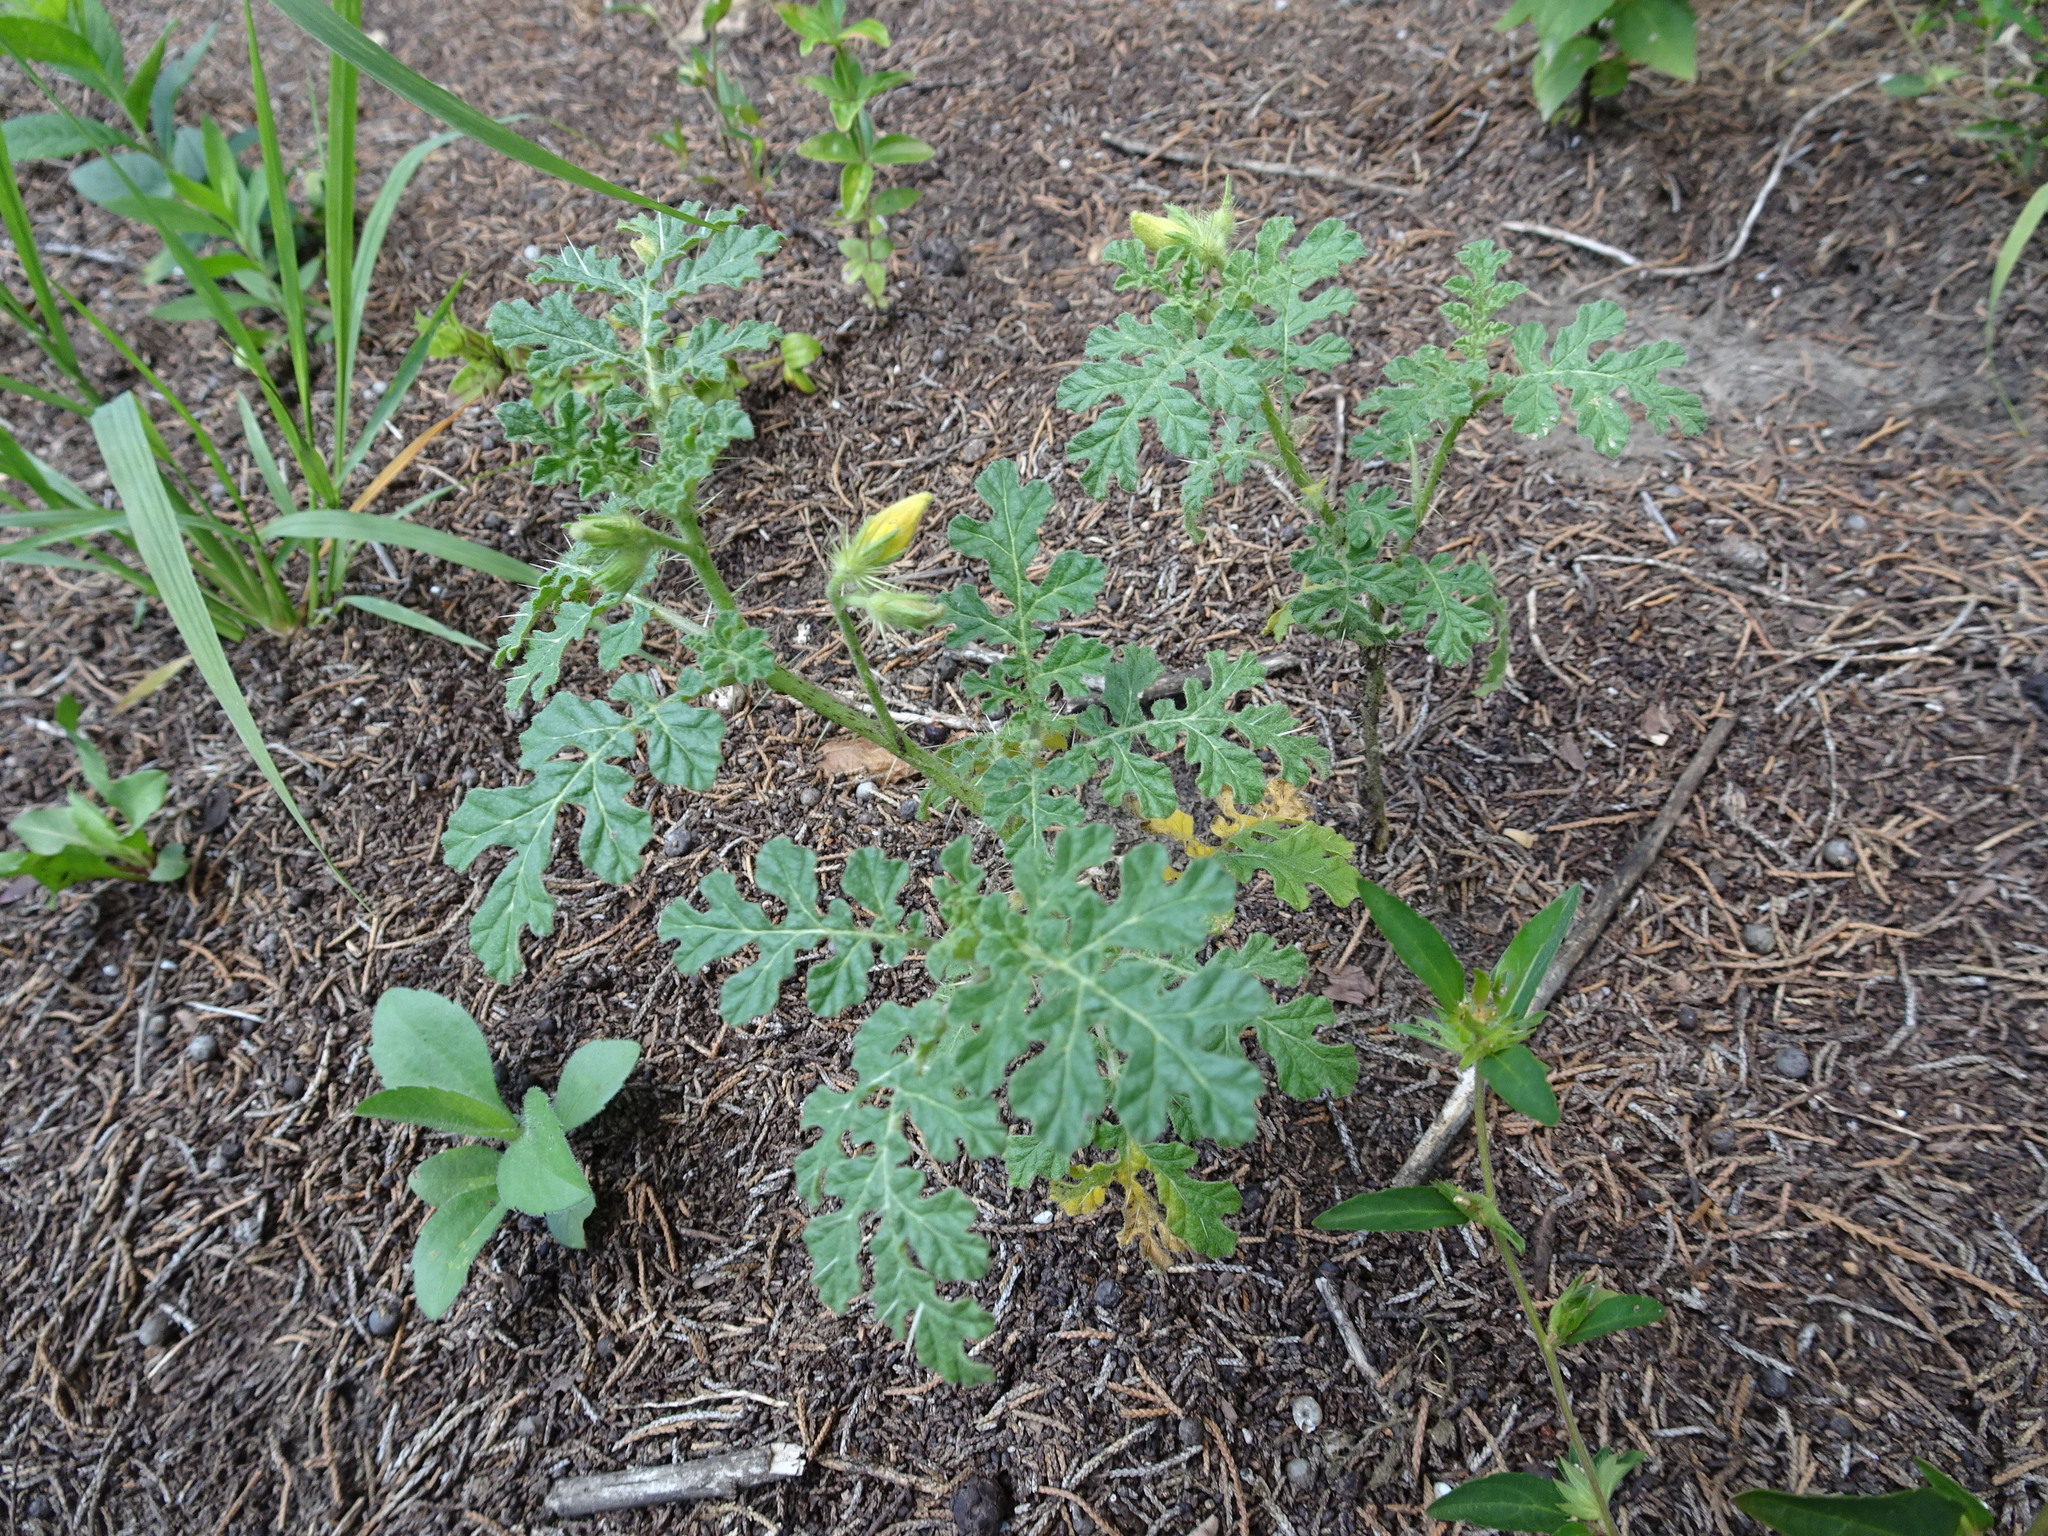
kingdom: Plantae
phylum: Tracheophyta
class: Magnoliopsida
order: Solanales
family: Solanaceae
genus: Solanum
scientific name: Solanum angustifolium
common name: Buffalobur nightshade
